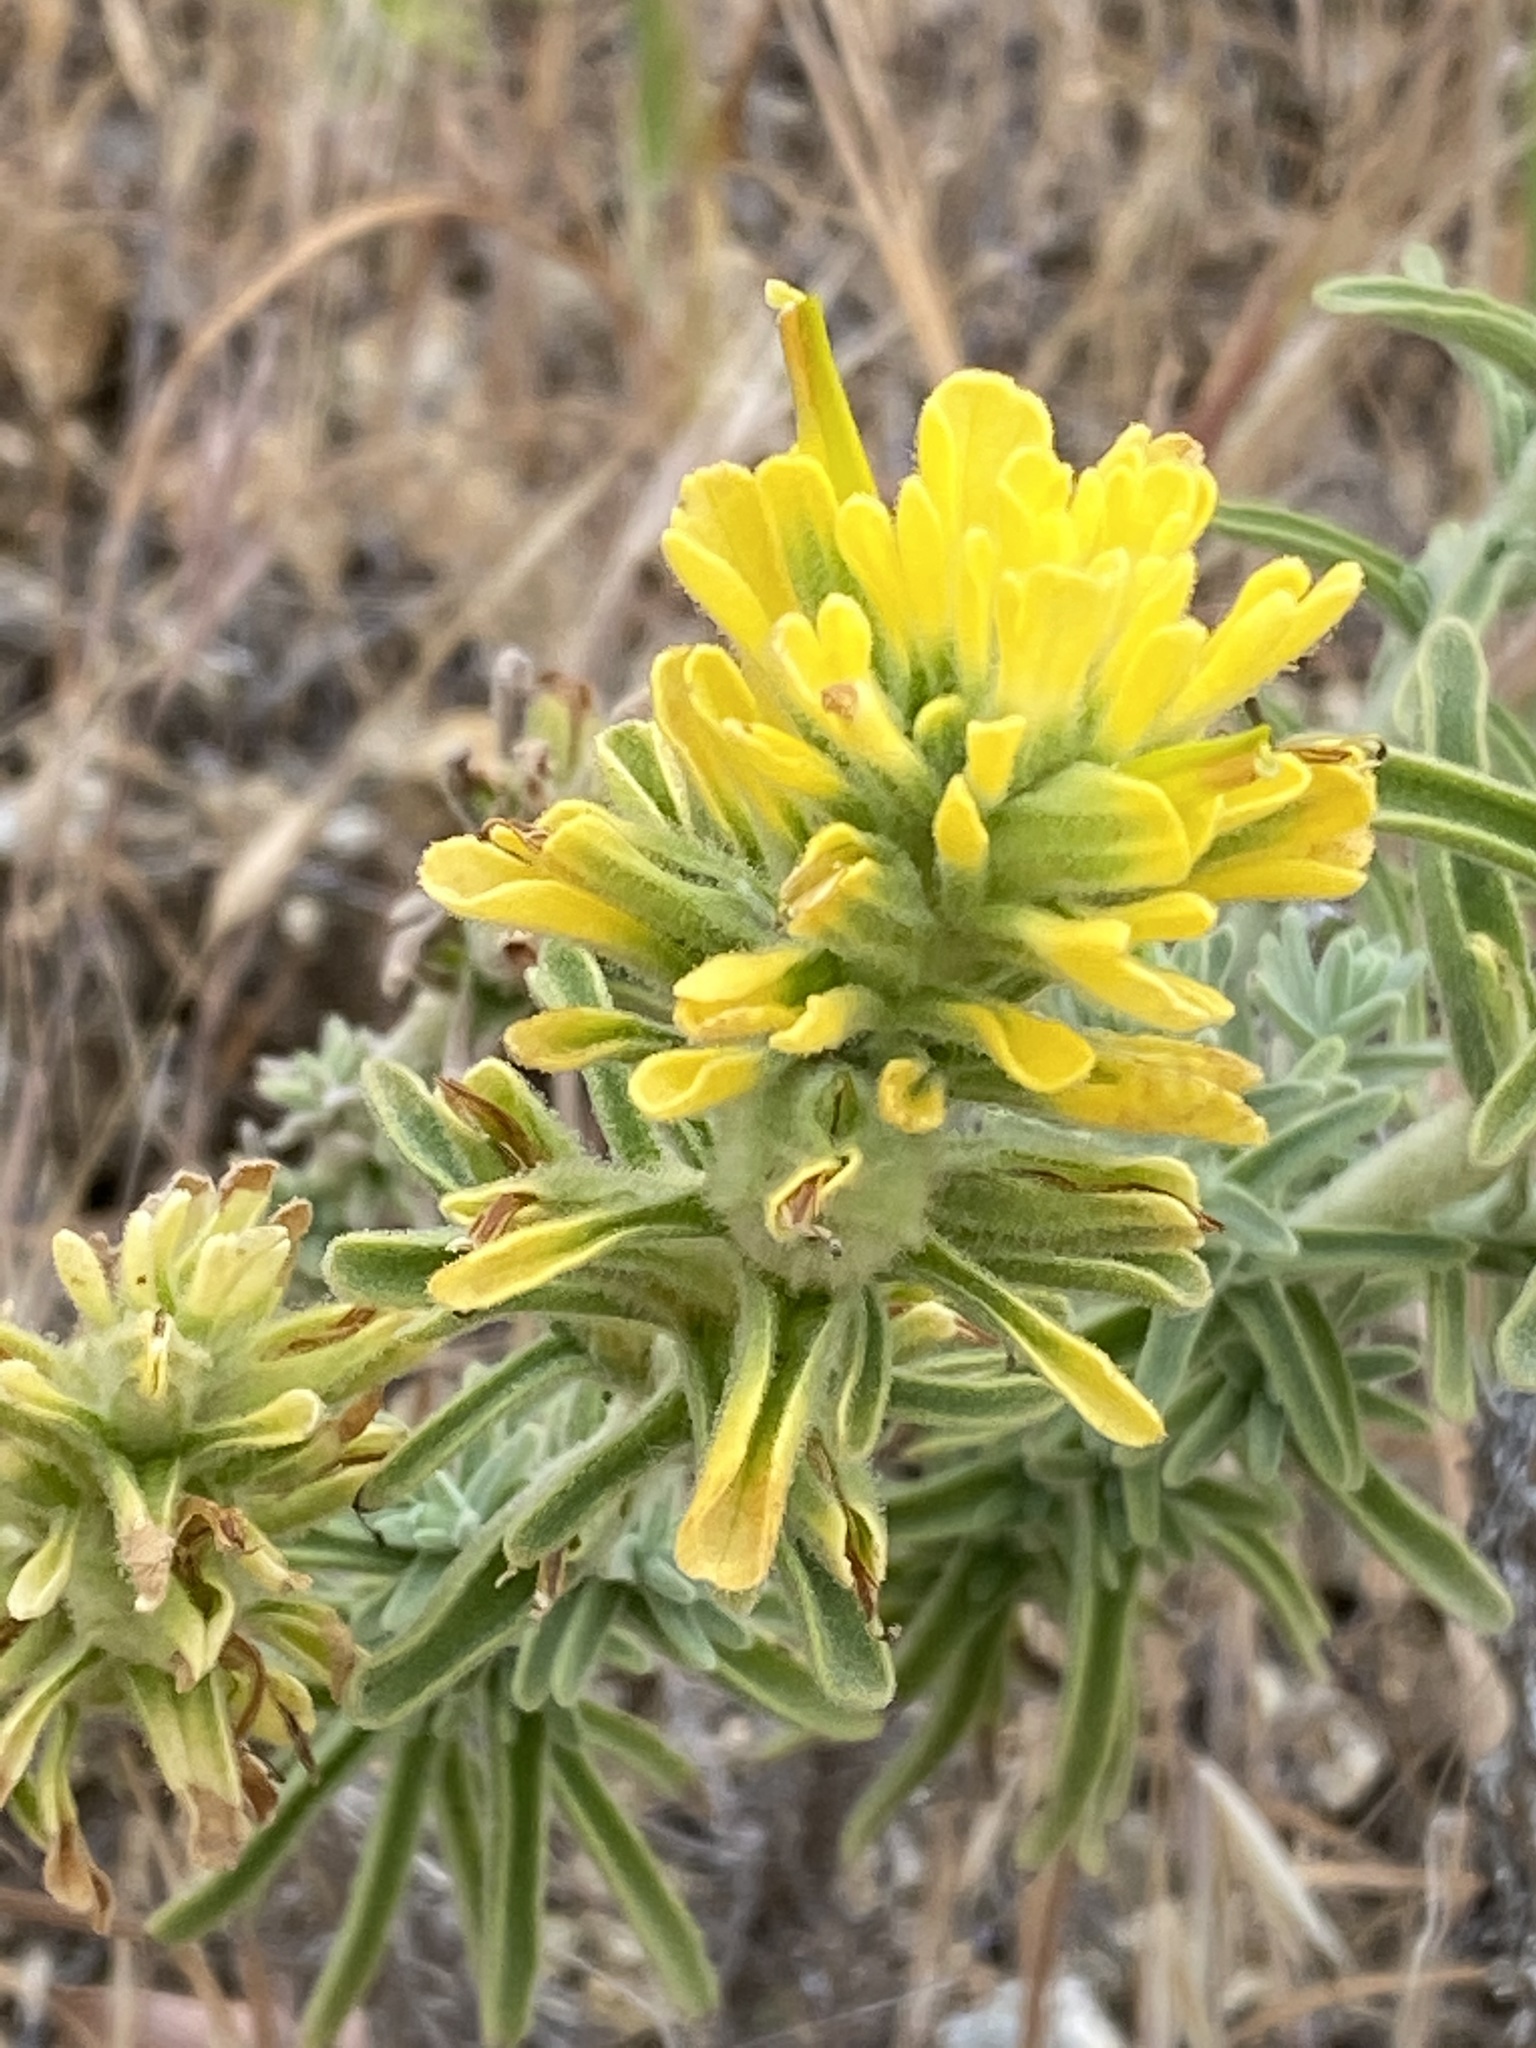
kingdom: Plantae
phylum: Tracheophyta
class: Magnoliopsida
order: Lamiales
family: Orobanchaceae
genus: Castilleja
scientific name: Castilleja foliolosa
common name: Woolly indian paintbrush
